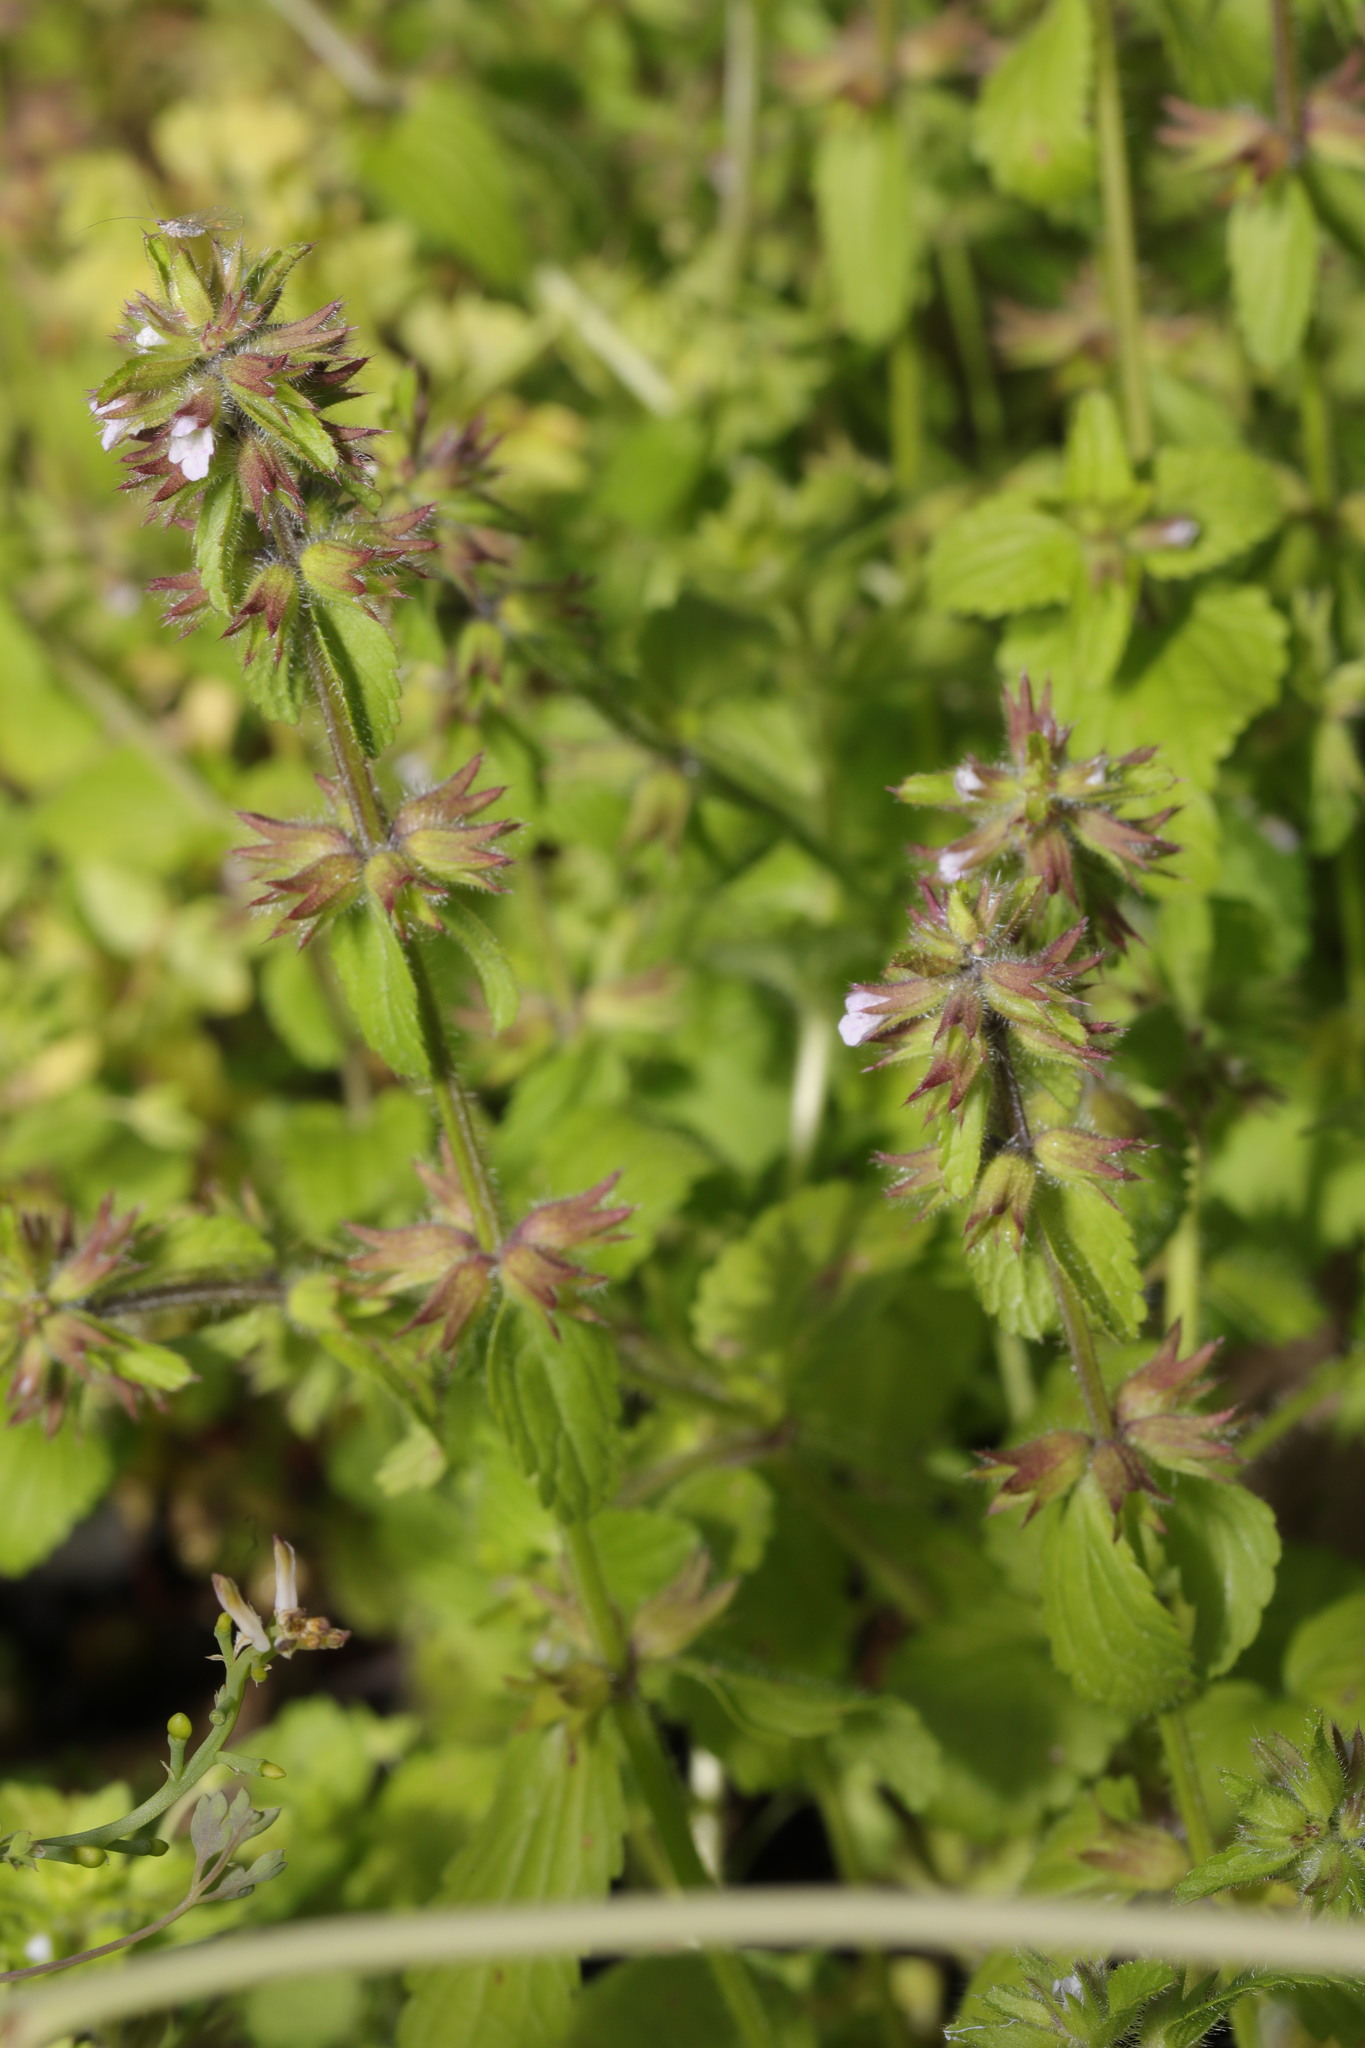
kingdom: Plantae
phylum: Tracheophyta
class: Magnoliopsida
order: Lamiales
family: Lamiaceae
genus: Stachys
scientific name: Stachys arvensis
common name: Field woundwort
